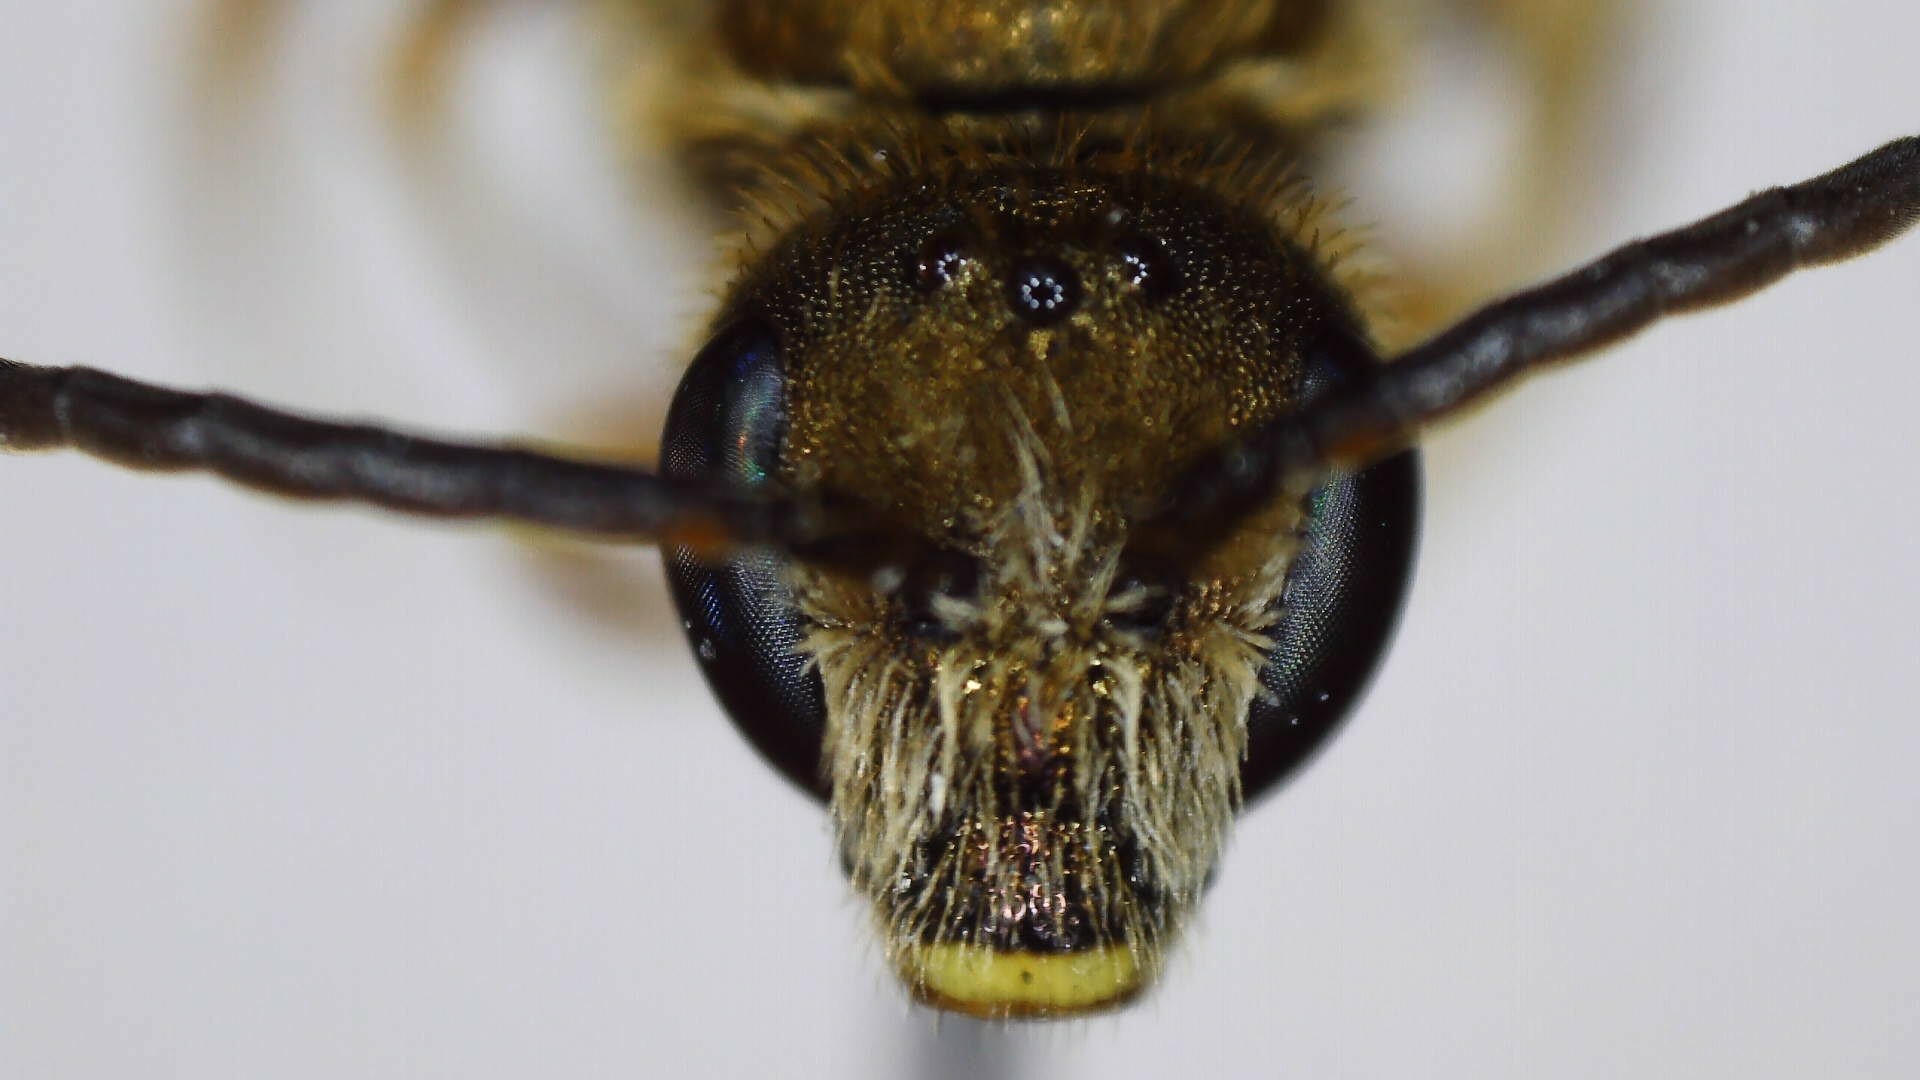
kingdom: Animalia
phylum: Arthropoda
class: Insecta
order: Hymenoptera
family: Halictidae
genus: Halictus
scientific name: Halictus confusus
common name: Southern bronze furrow bee
